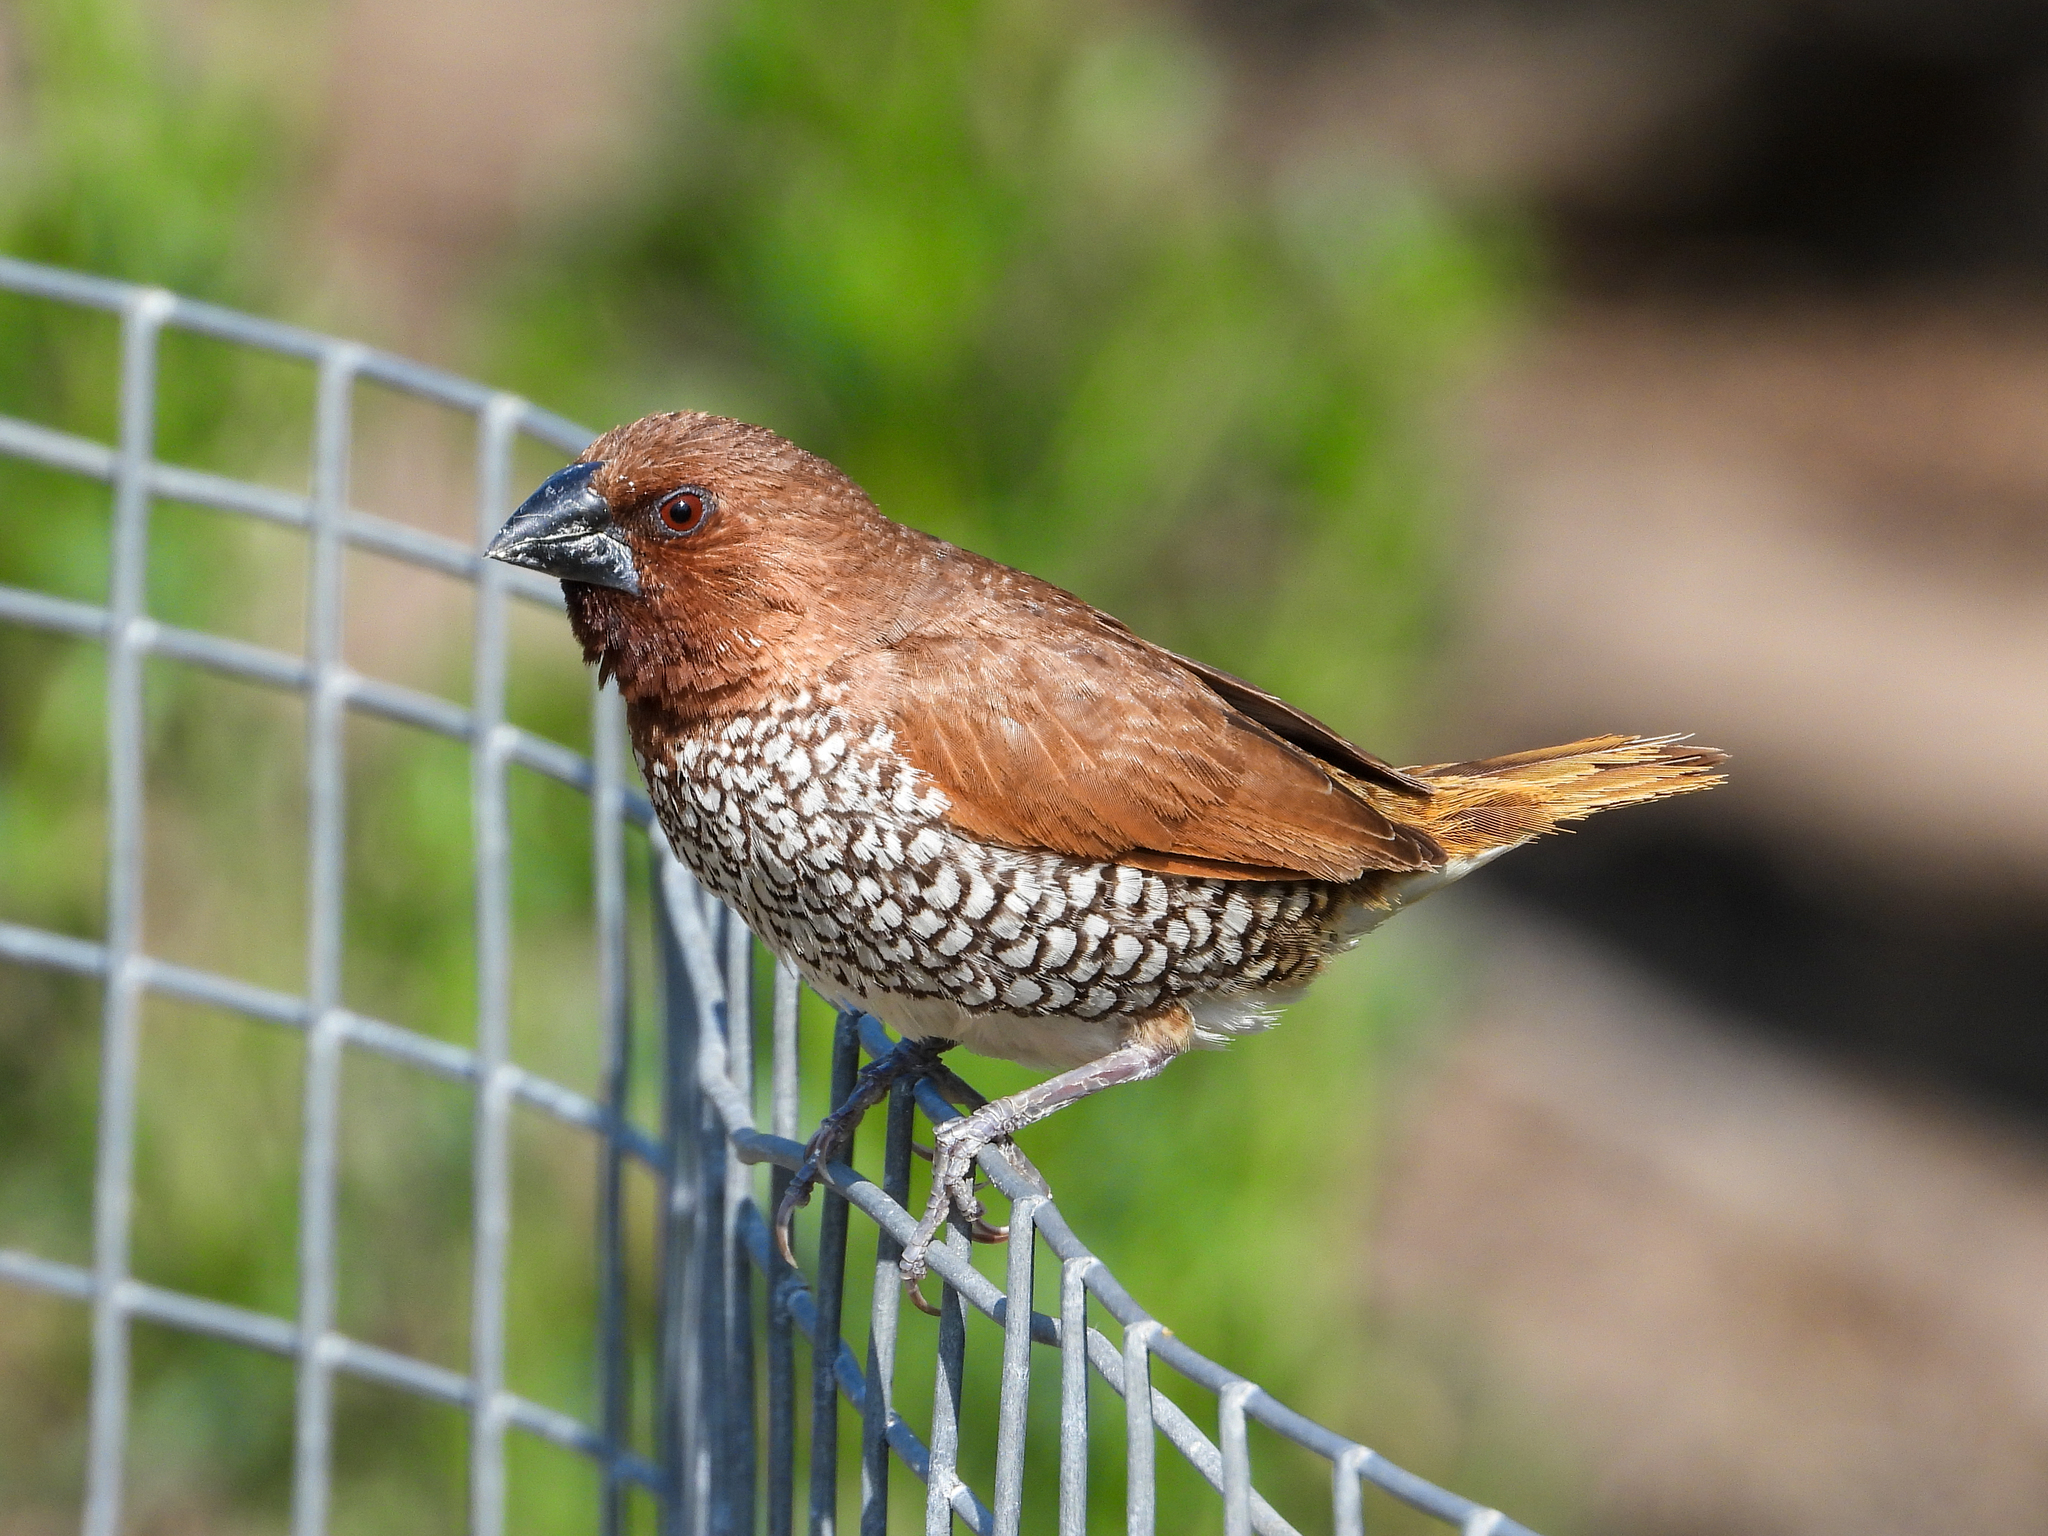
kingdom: Animalia
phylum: Chordata
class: Aves
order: Passeriformes
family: Estrildidae
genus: Lonchura
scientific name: Lonchura punctulata
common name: Scaly-breasted munia
